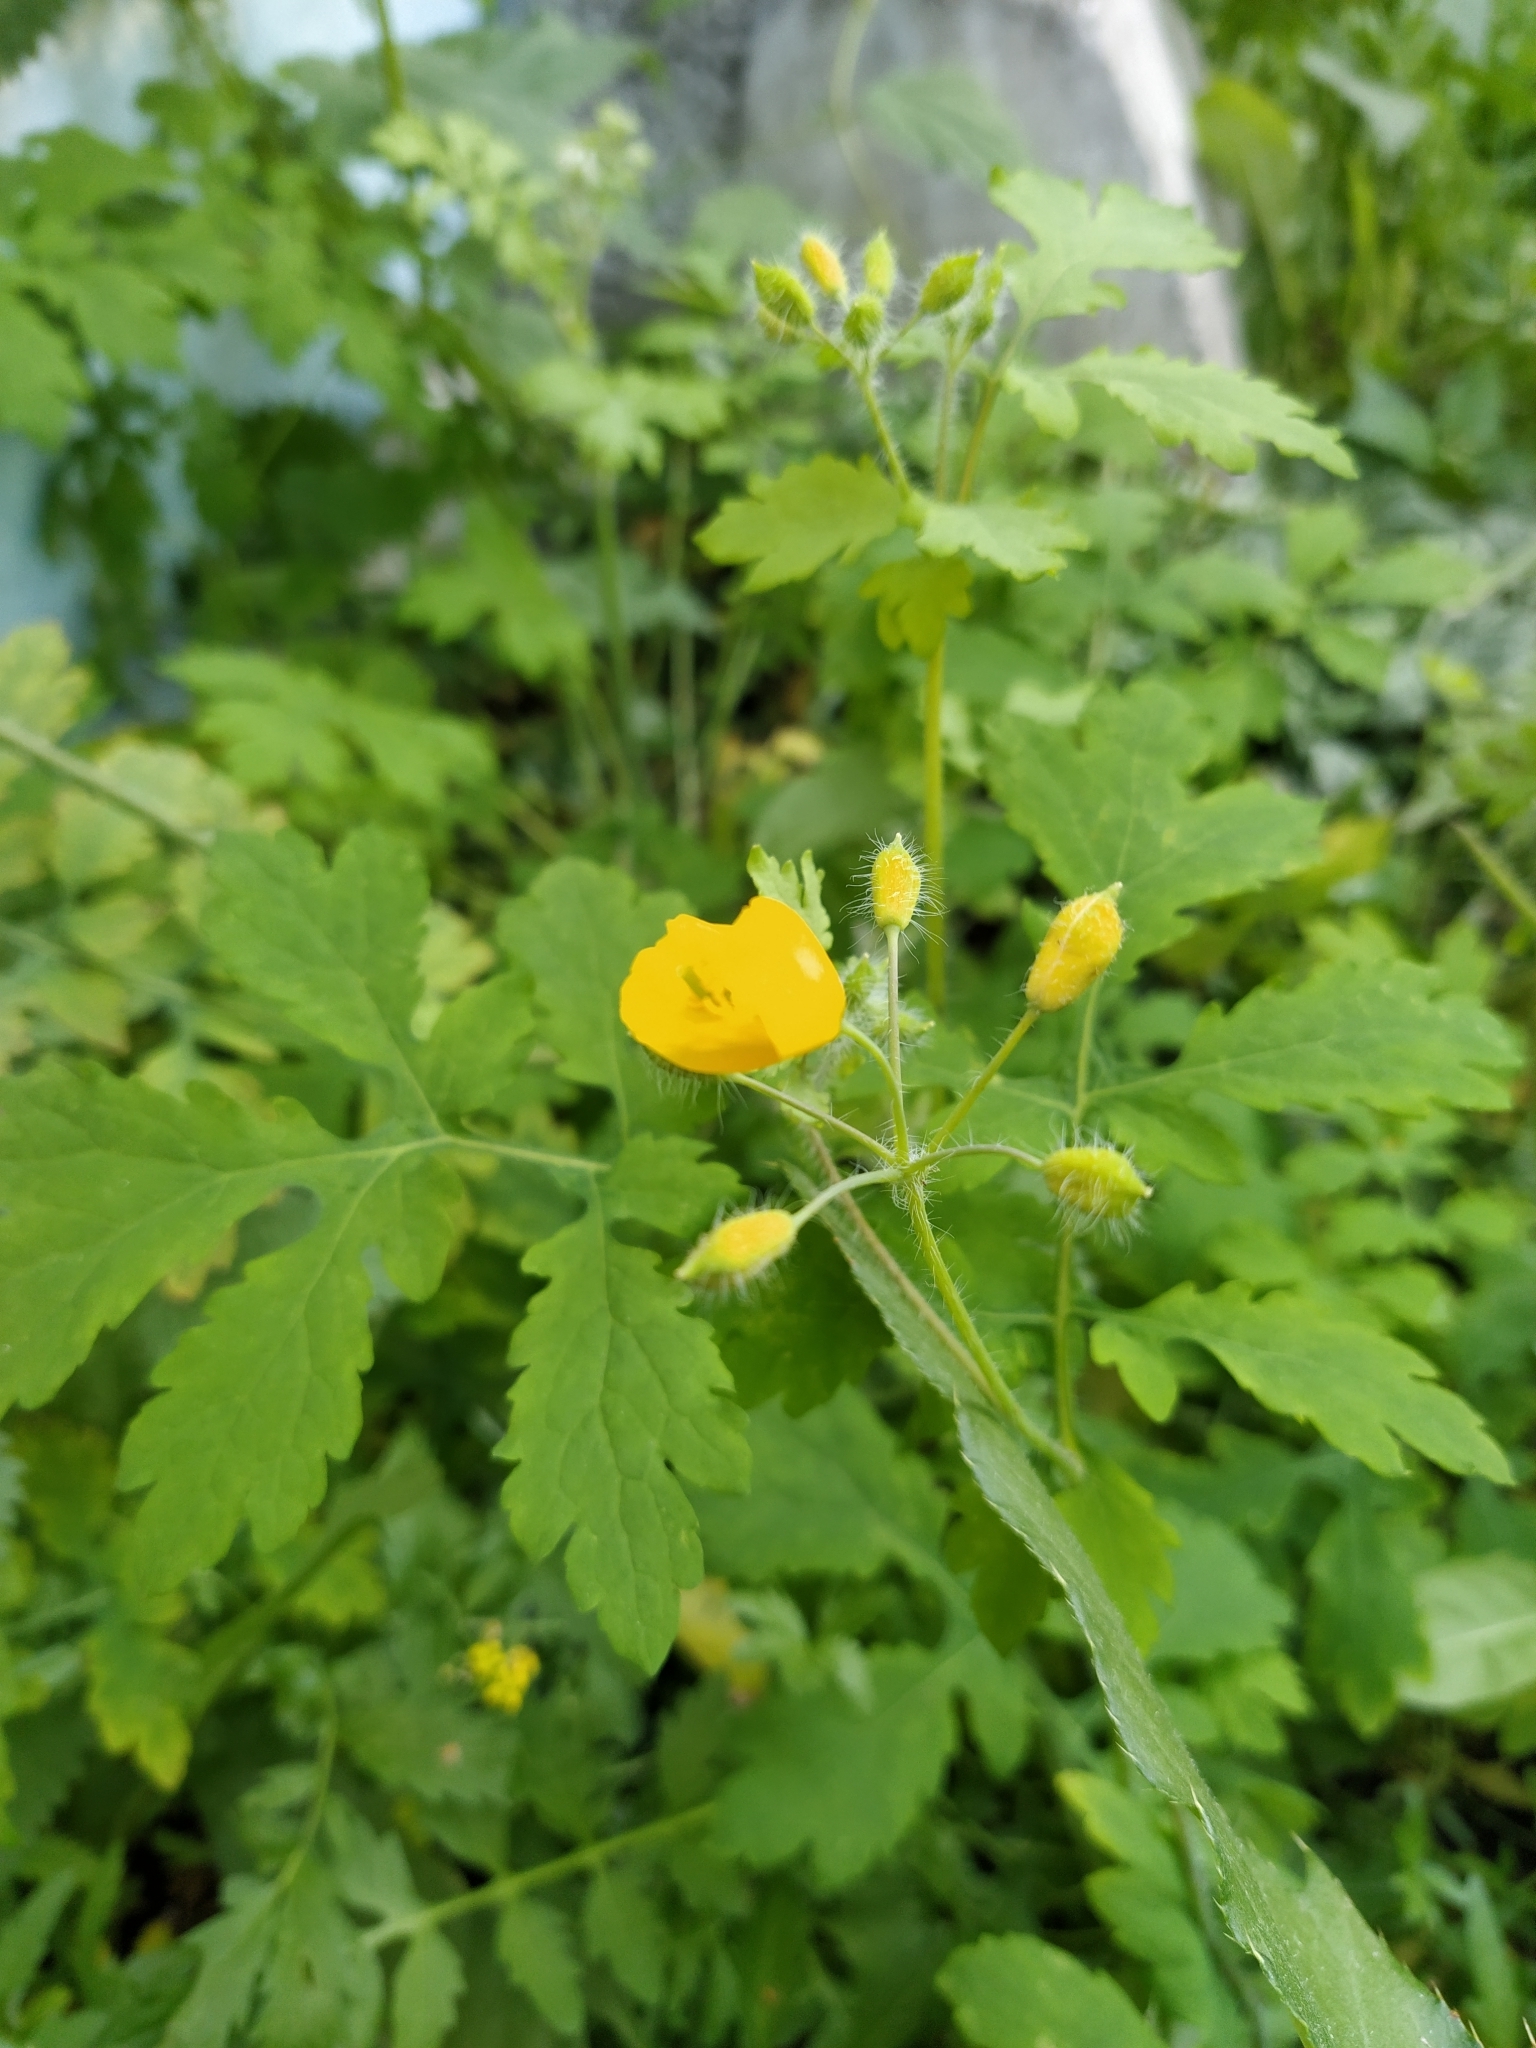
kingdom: Plantae
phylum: Tracheophyta
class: Magnoliopsida
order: Ranunculales
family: Papaveraceae
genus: Chelidonium
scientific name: Chelidonium majus
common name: Greater celandine
